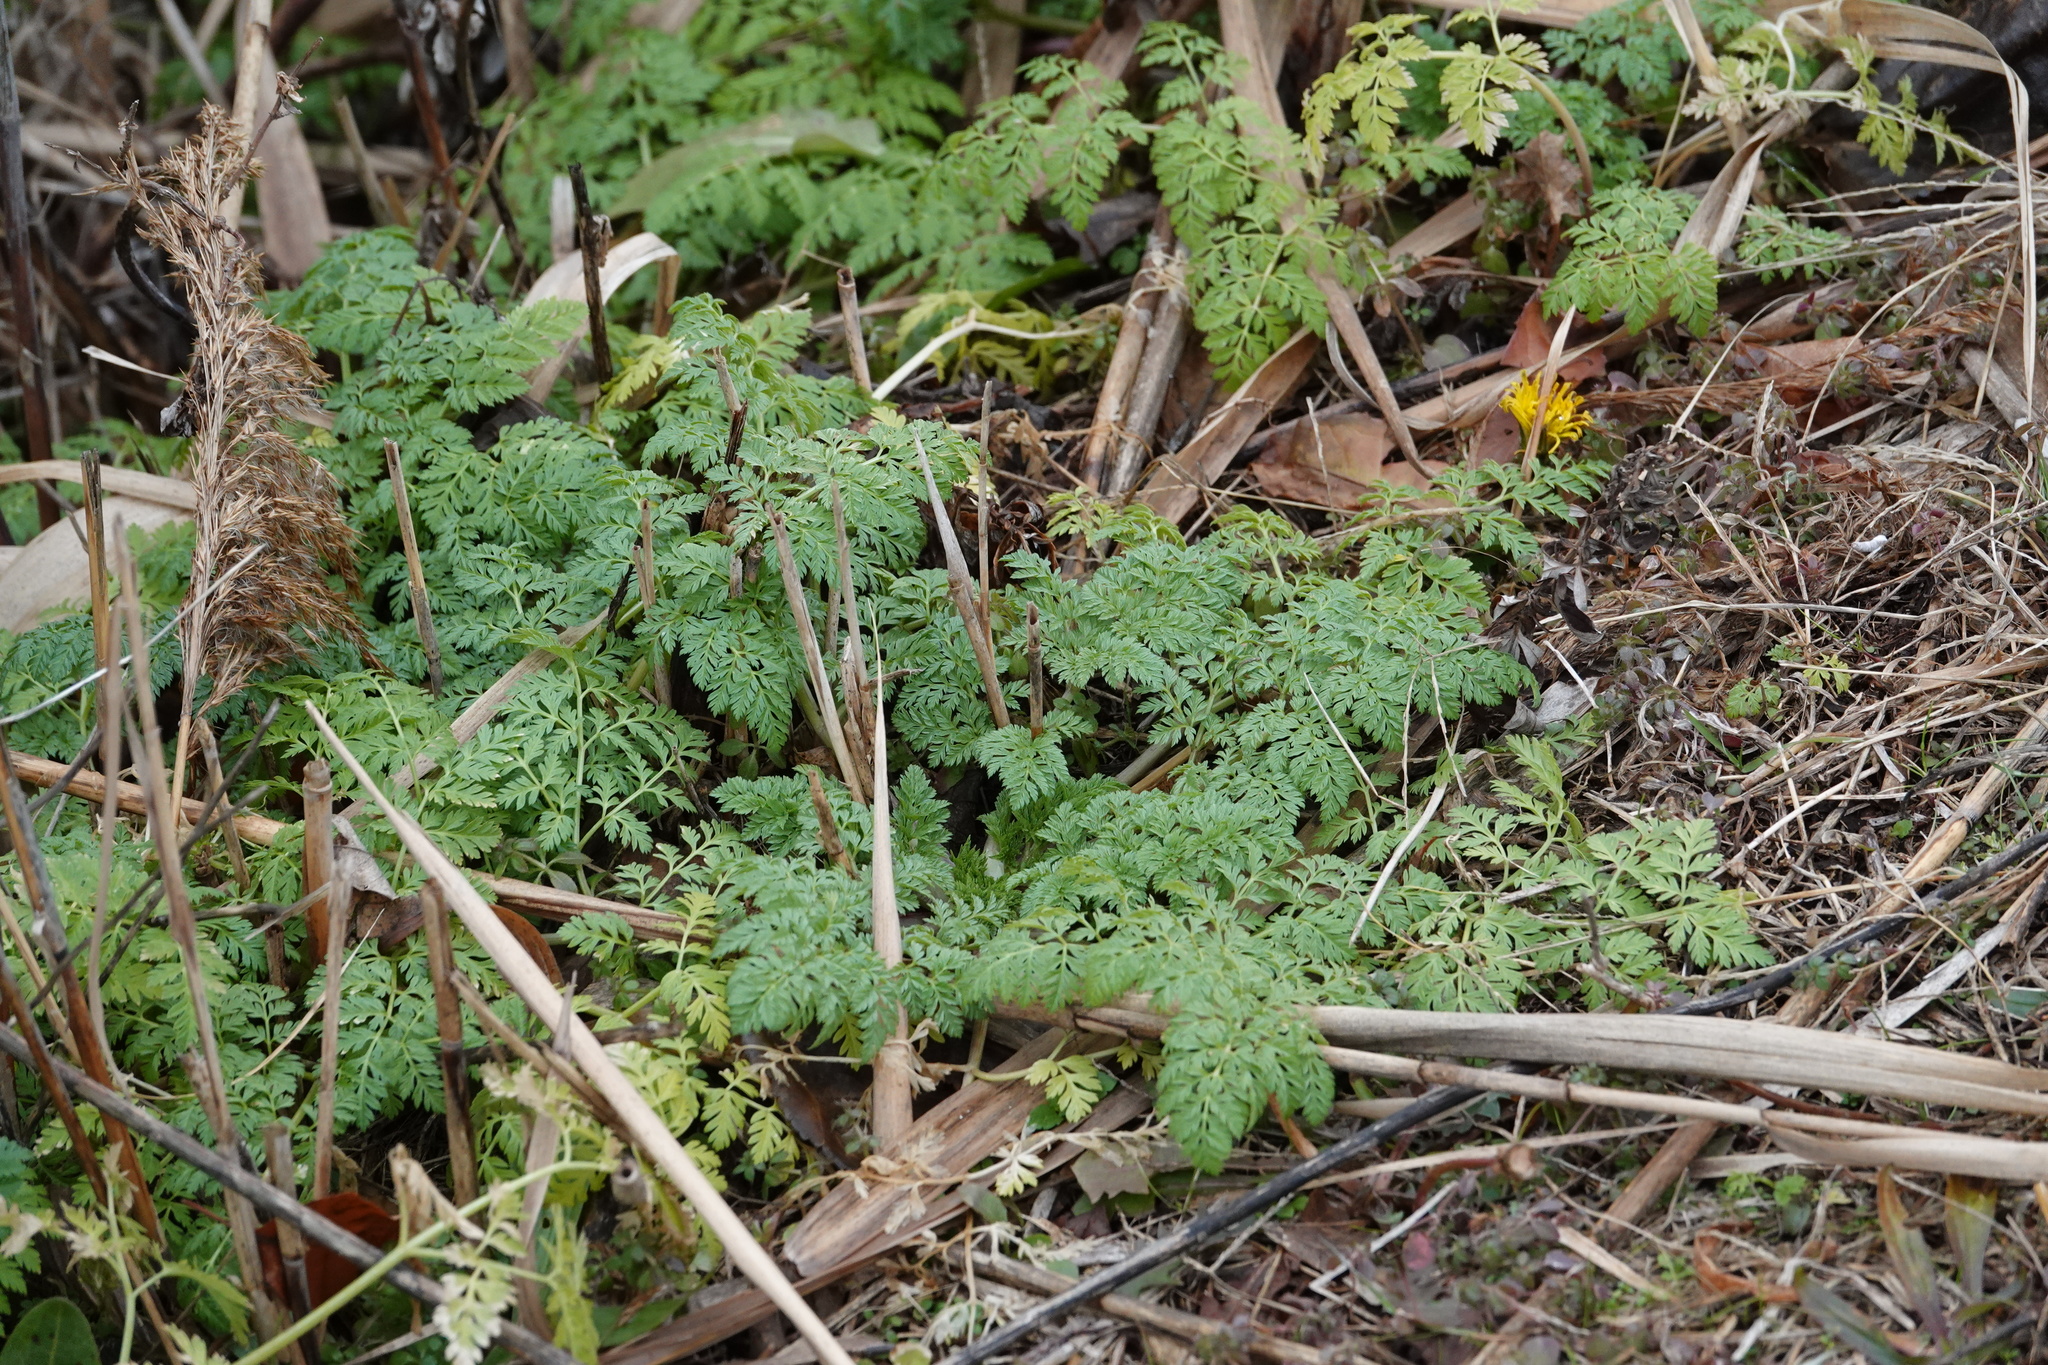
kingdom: Plantae
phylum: Tracheophyta
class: Magnoliopsida
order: Apiales
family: Apiaceae
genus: Conium
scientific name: Conium maculatum
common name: Hemlock
